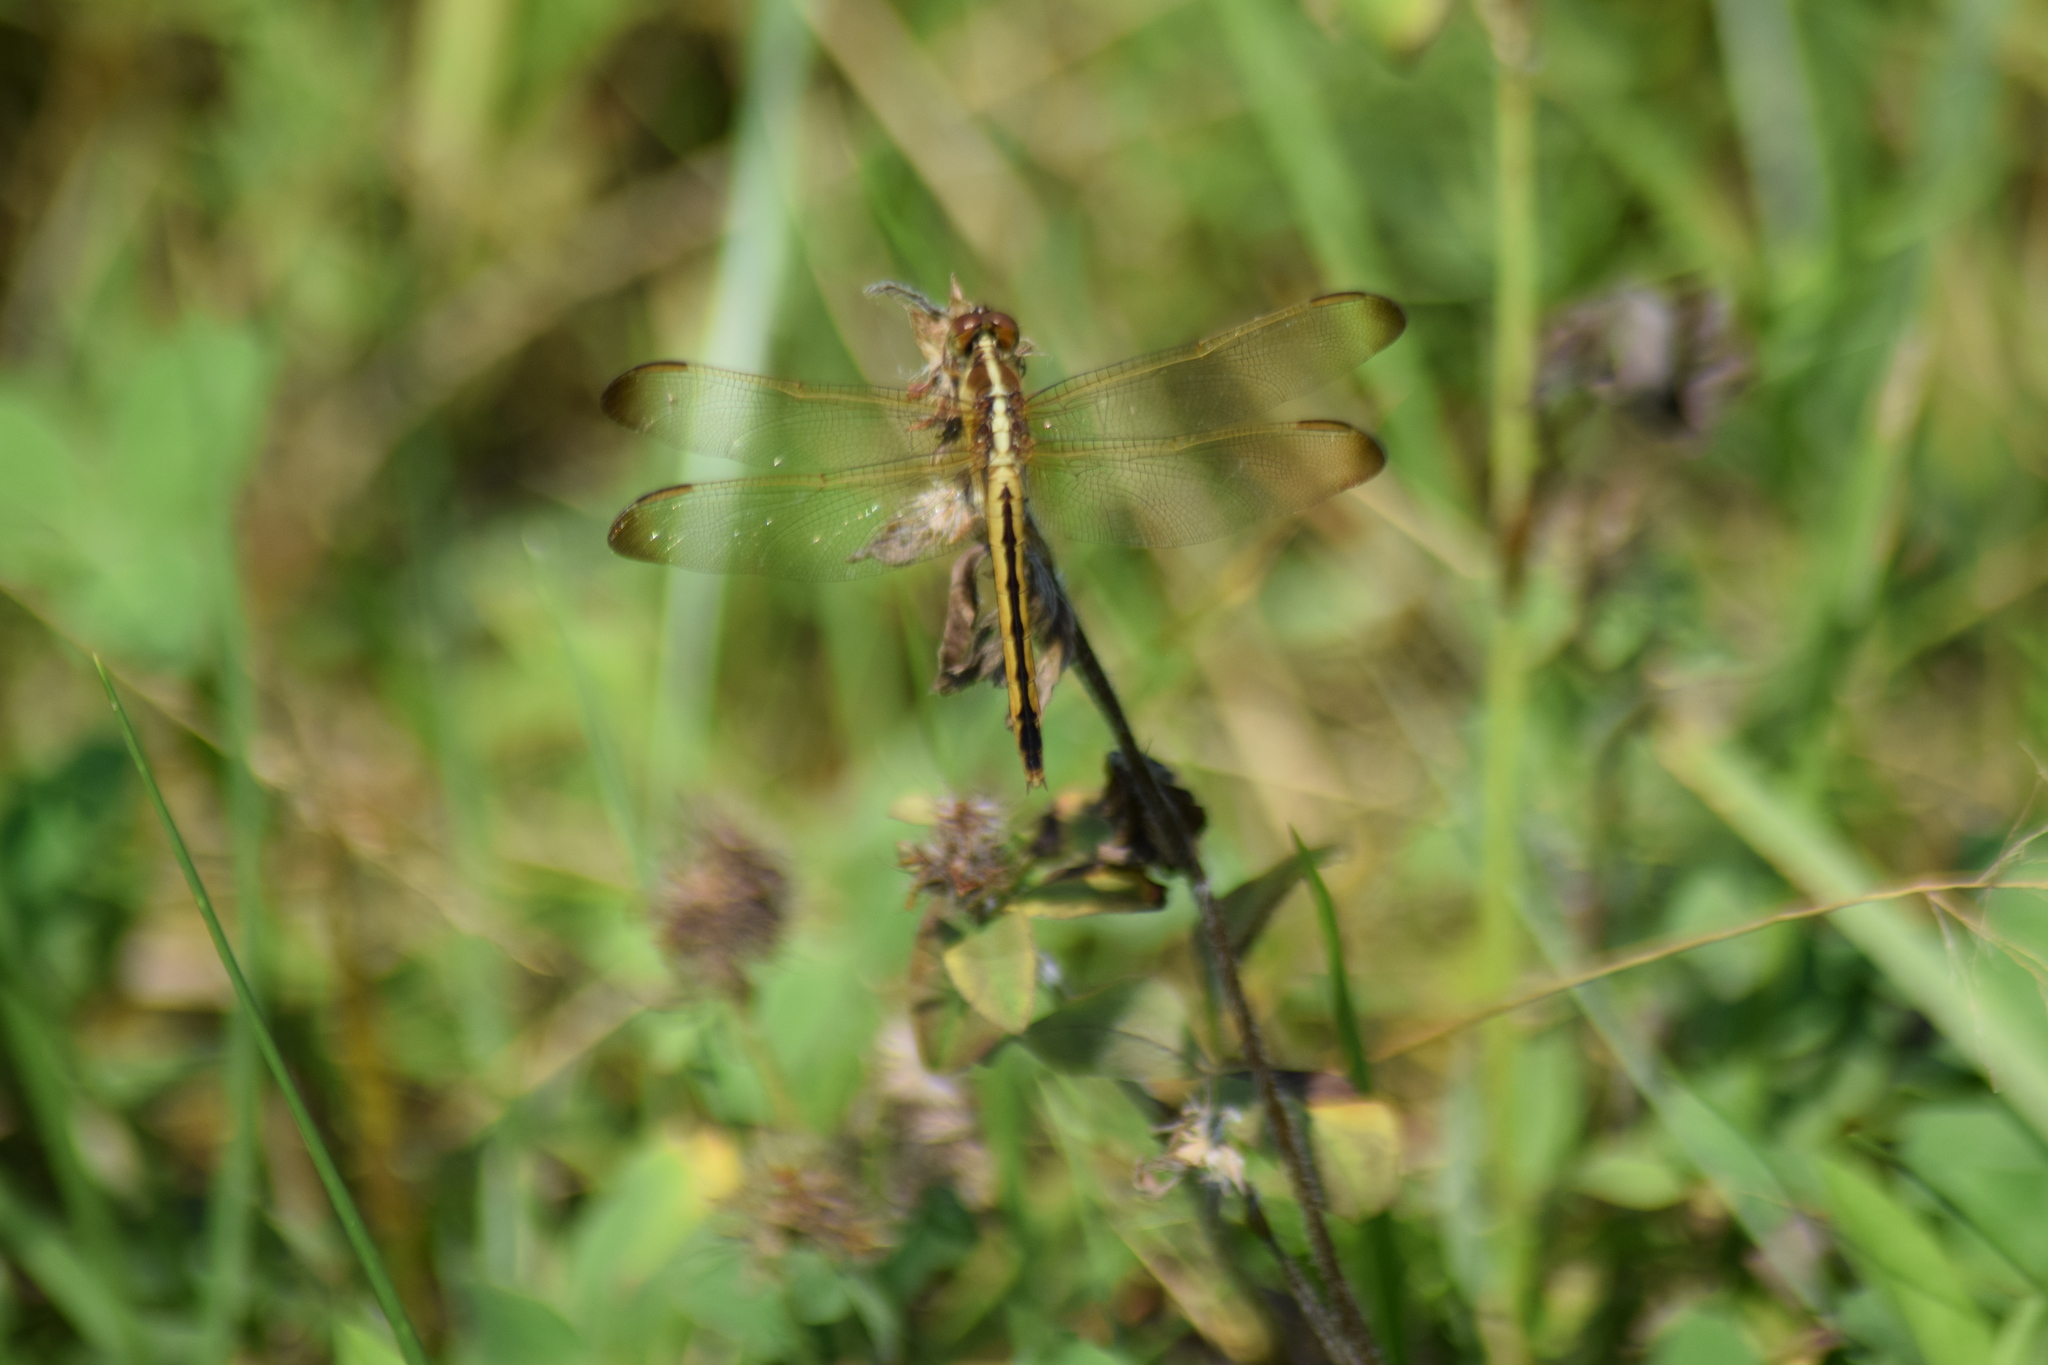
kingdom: Animalia
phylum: Arthropoda
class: Insecta
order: Odonata
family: Libellulidae
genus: Libellula
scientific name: Libellula needhami
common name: Needham's skimmer
